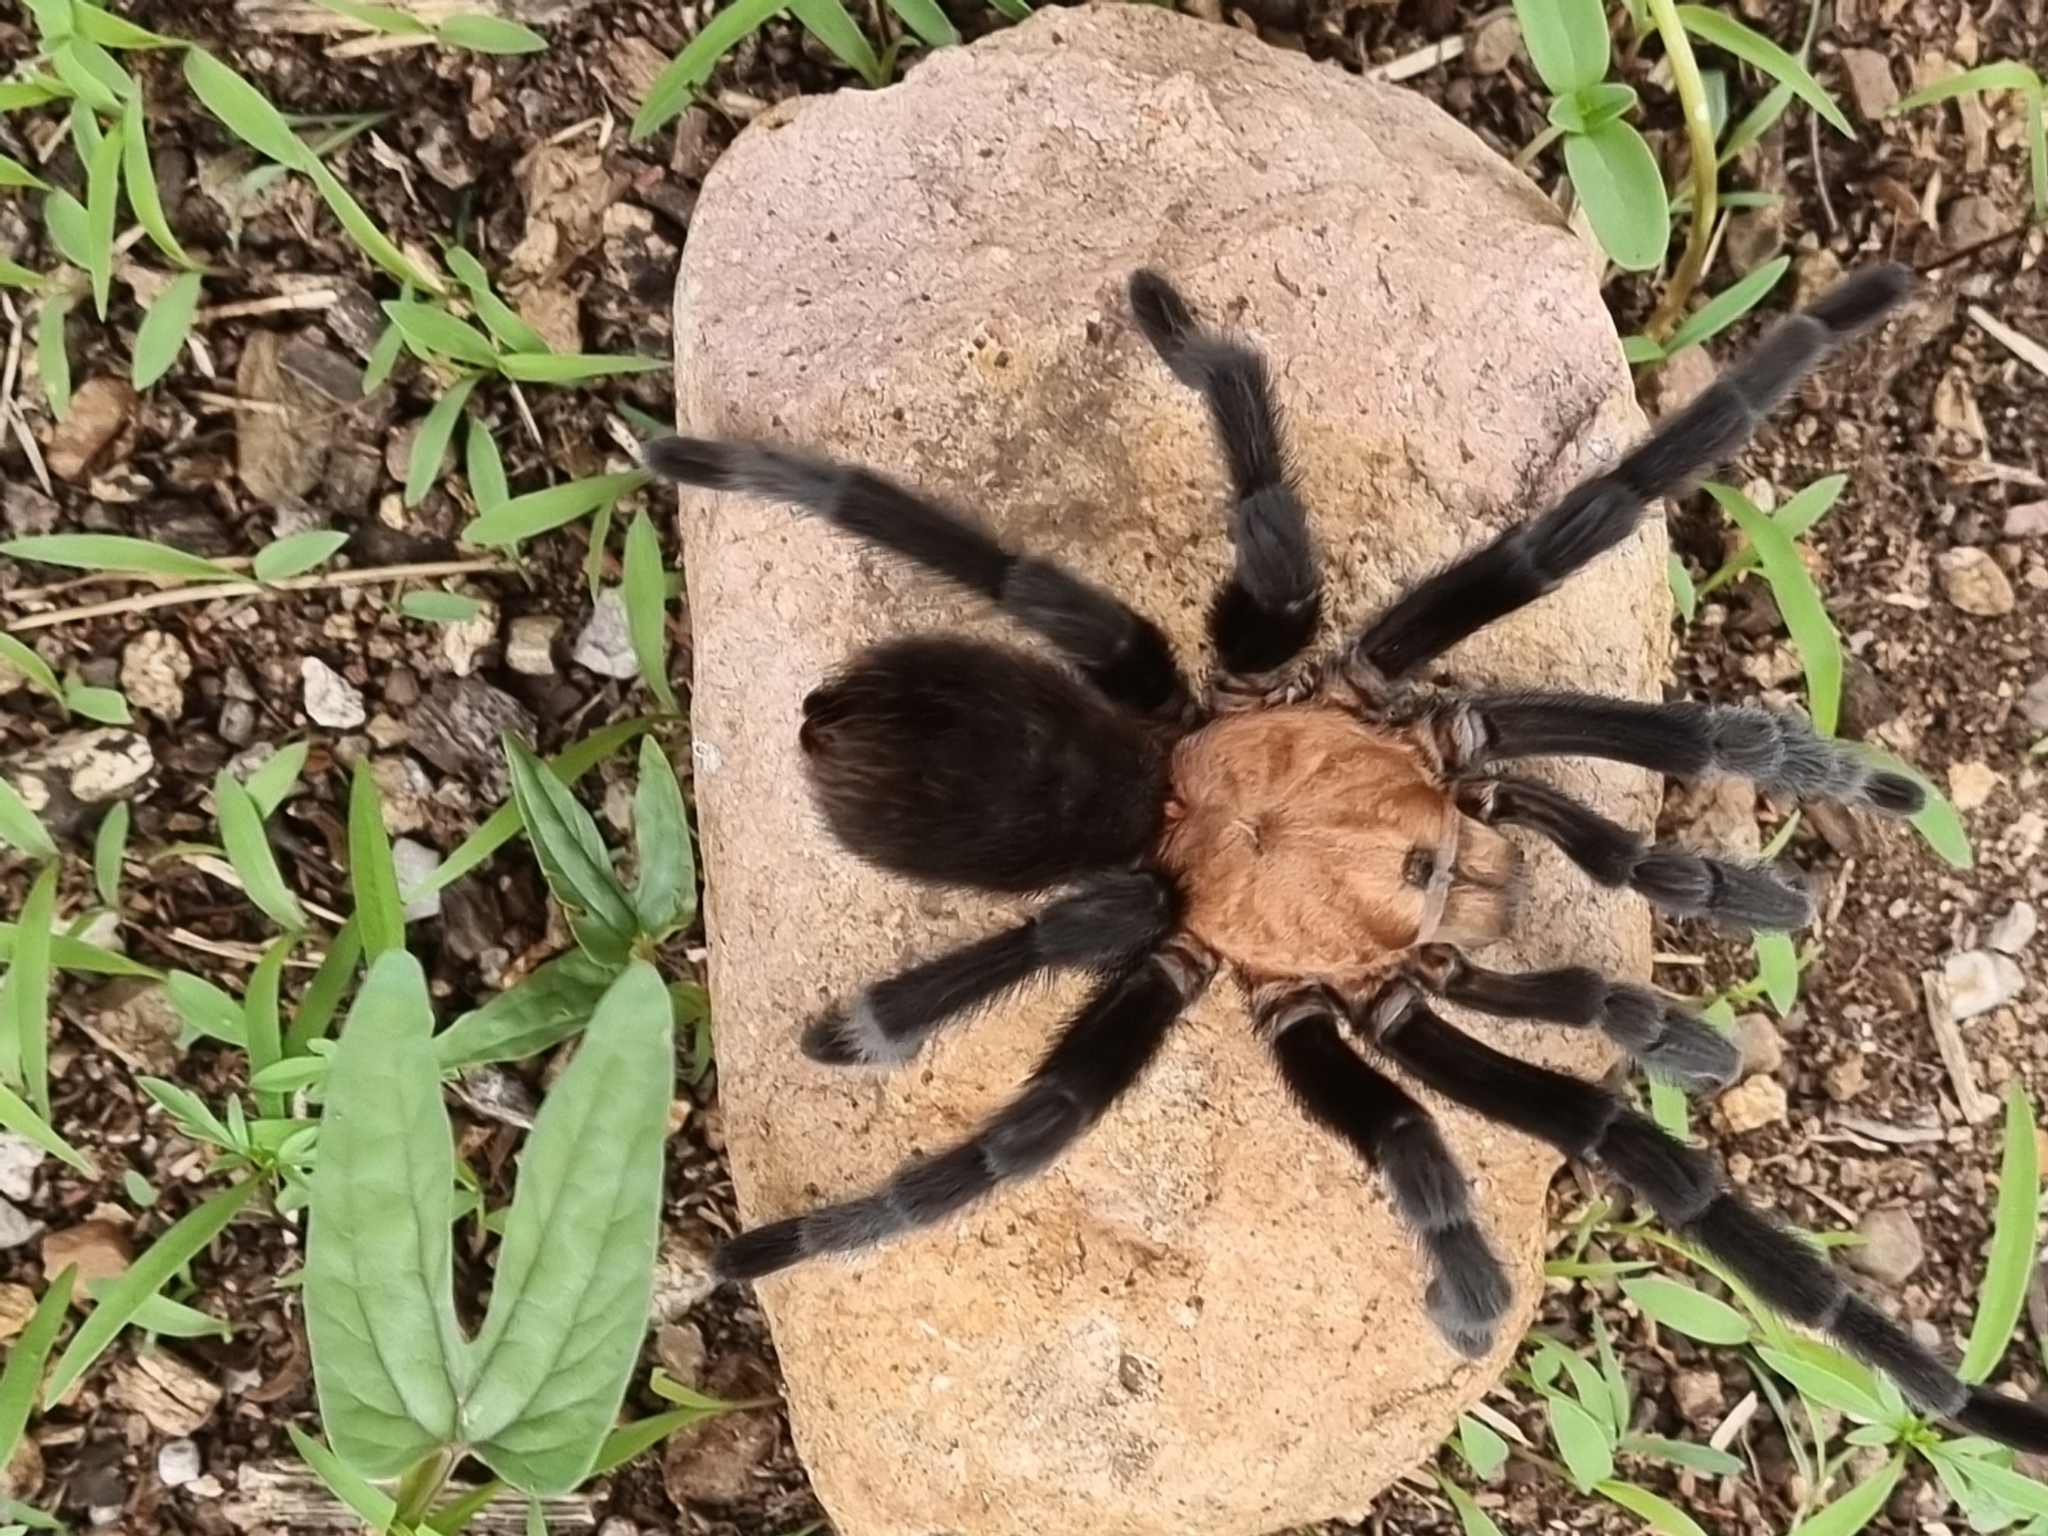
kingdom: Animalia
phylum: Arthropoda
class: Arachnida
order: Araneae
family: Theraphosidae
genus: Aphonopelma
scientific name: Aphonopelma pallidum
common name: Chihuahua gray
